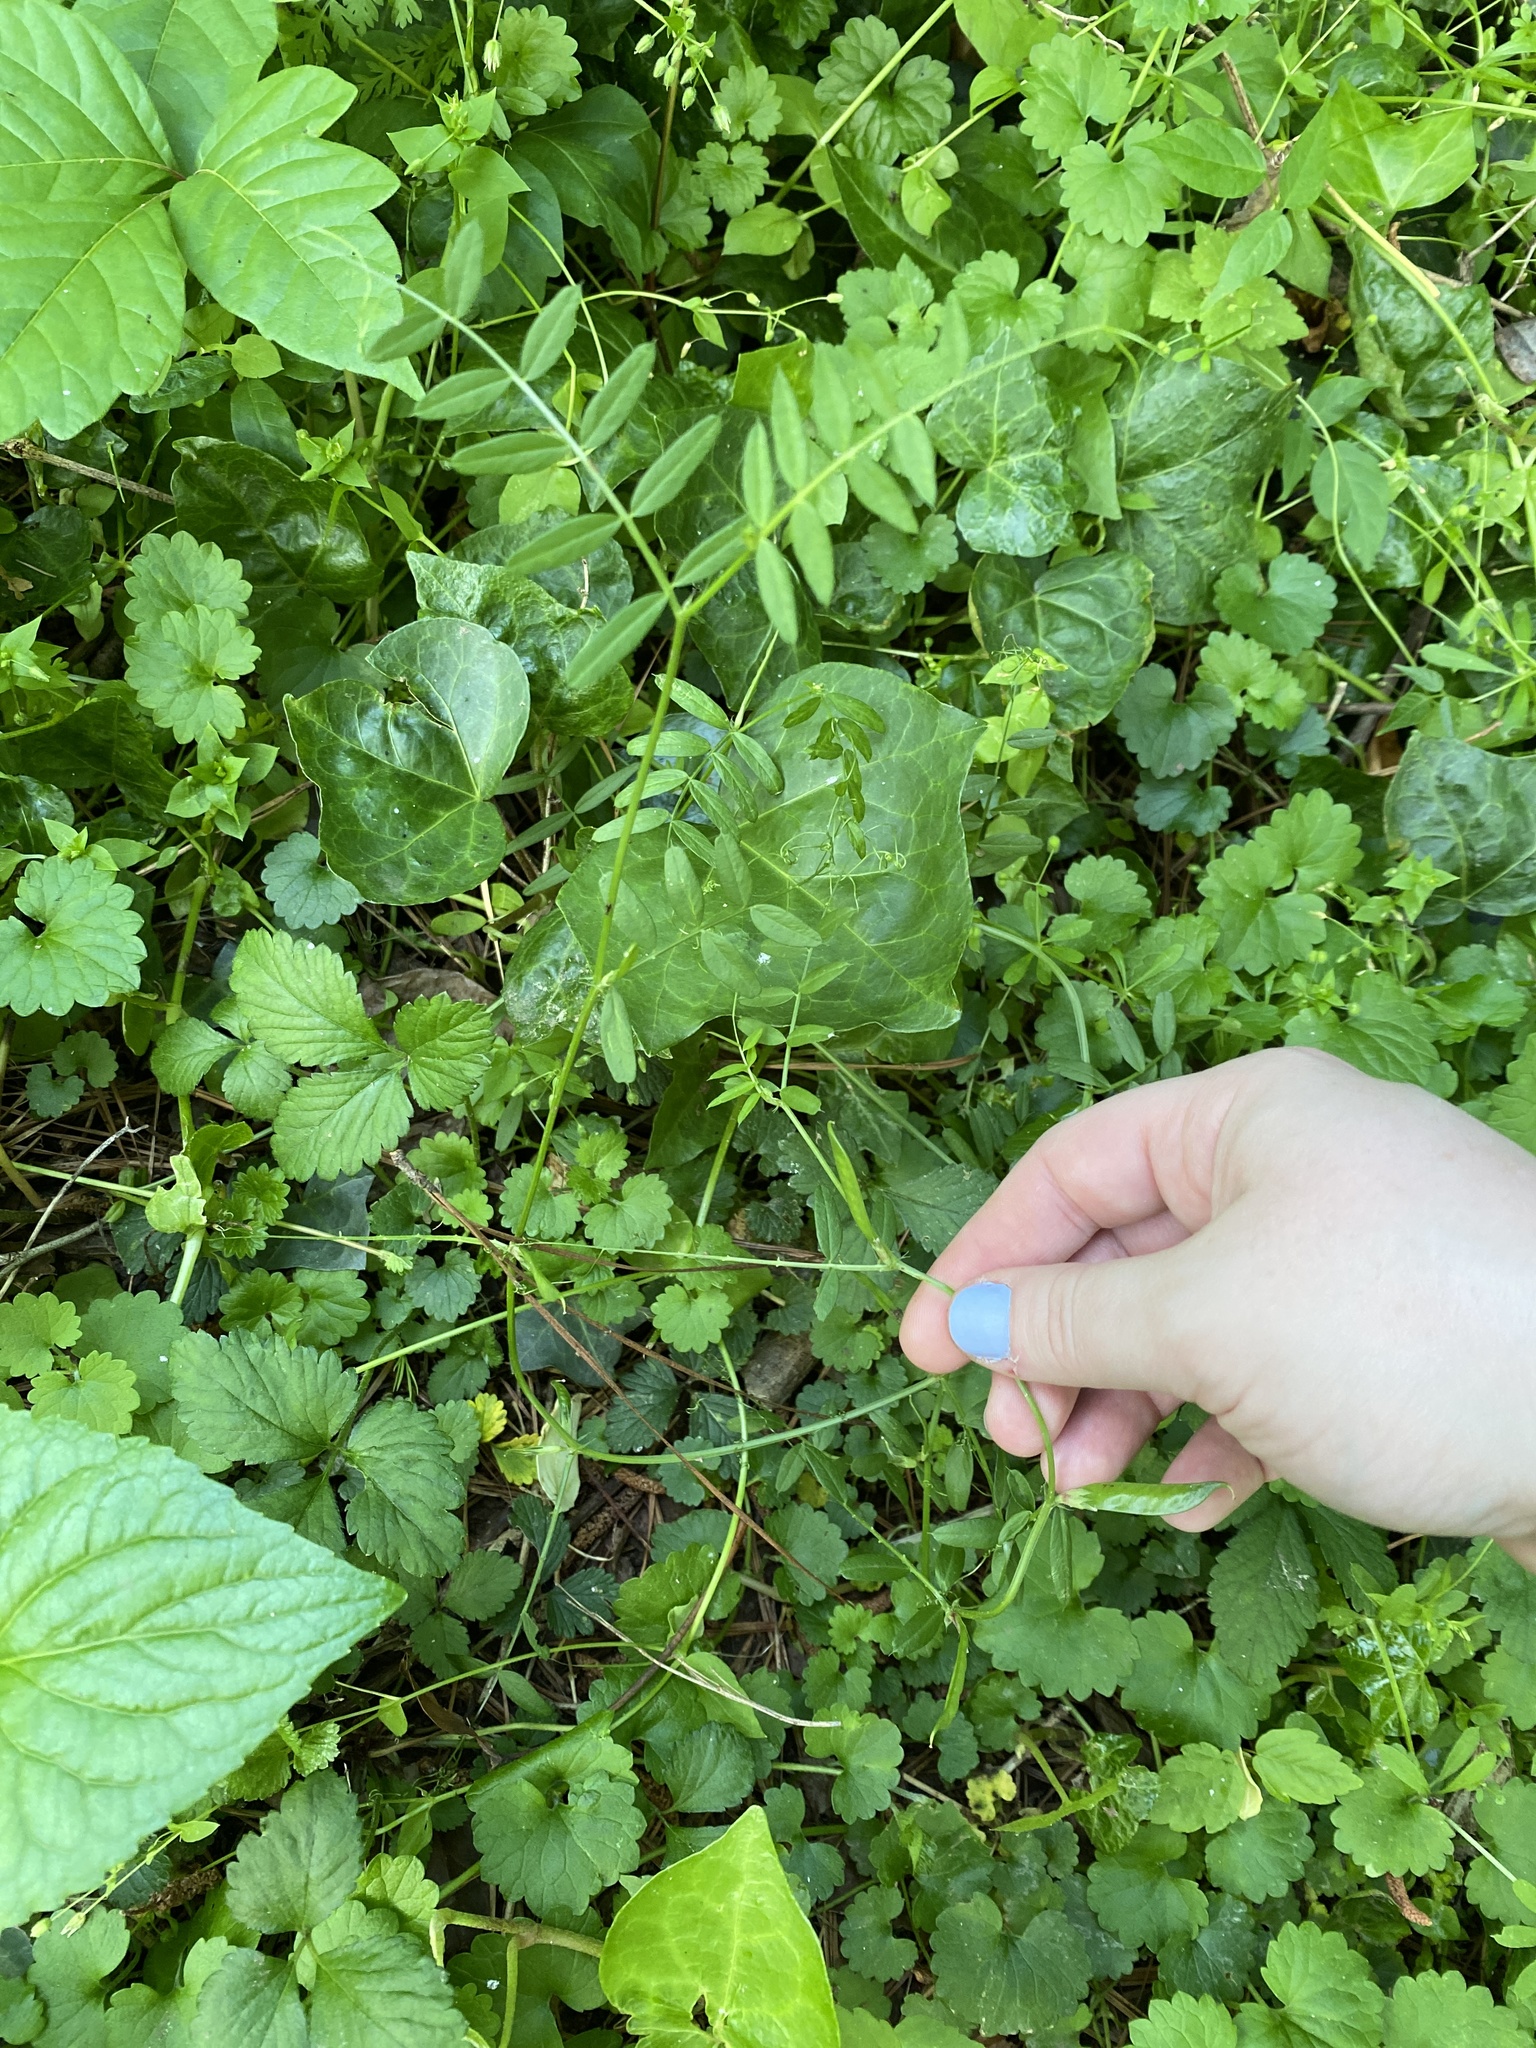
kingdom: Plantae
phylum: Tracheophyta
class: Magnoliopsida
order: Fabales
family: Fabaceae
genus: Vicia
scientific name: Vicia sativa
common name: Garden vetch
